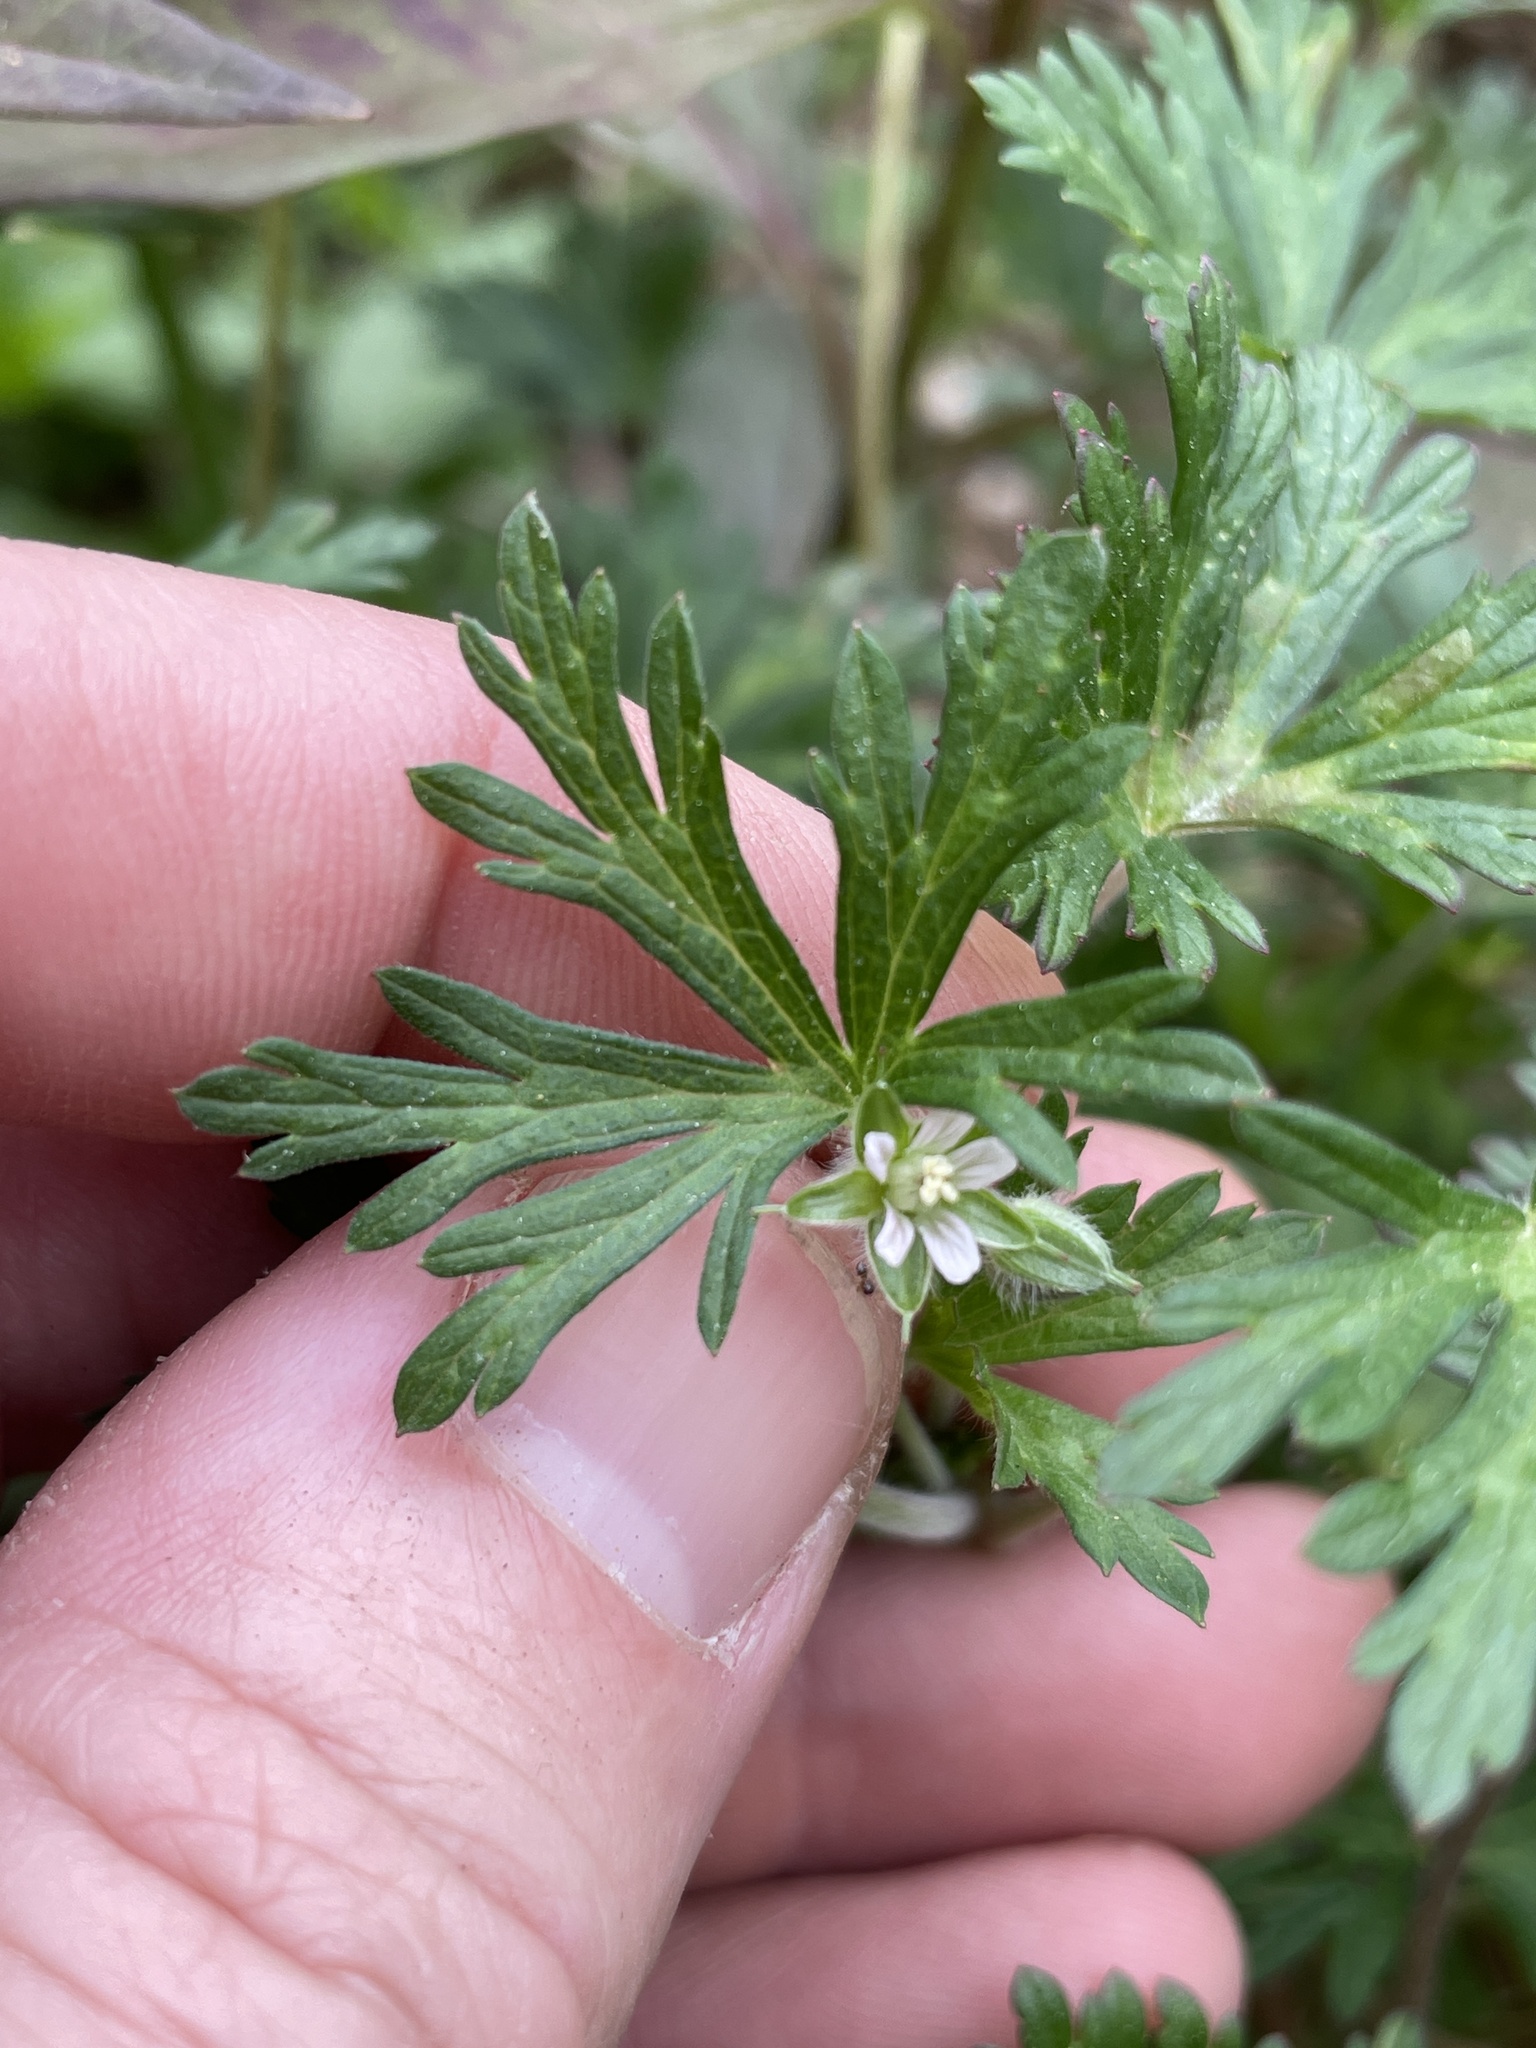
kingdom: Plantae
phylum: Tracheophyta
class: Magnoliopsida
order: Geraniales
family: Geraniaceae
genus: Geranium
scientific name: Geranium carolinianum
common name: Carolina crane's-bill
